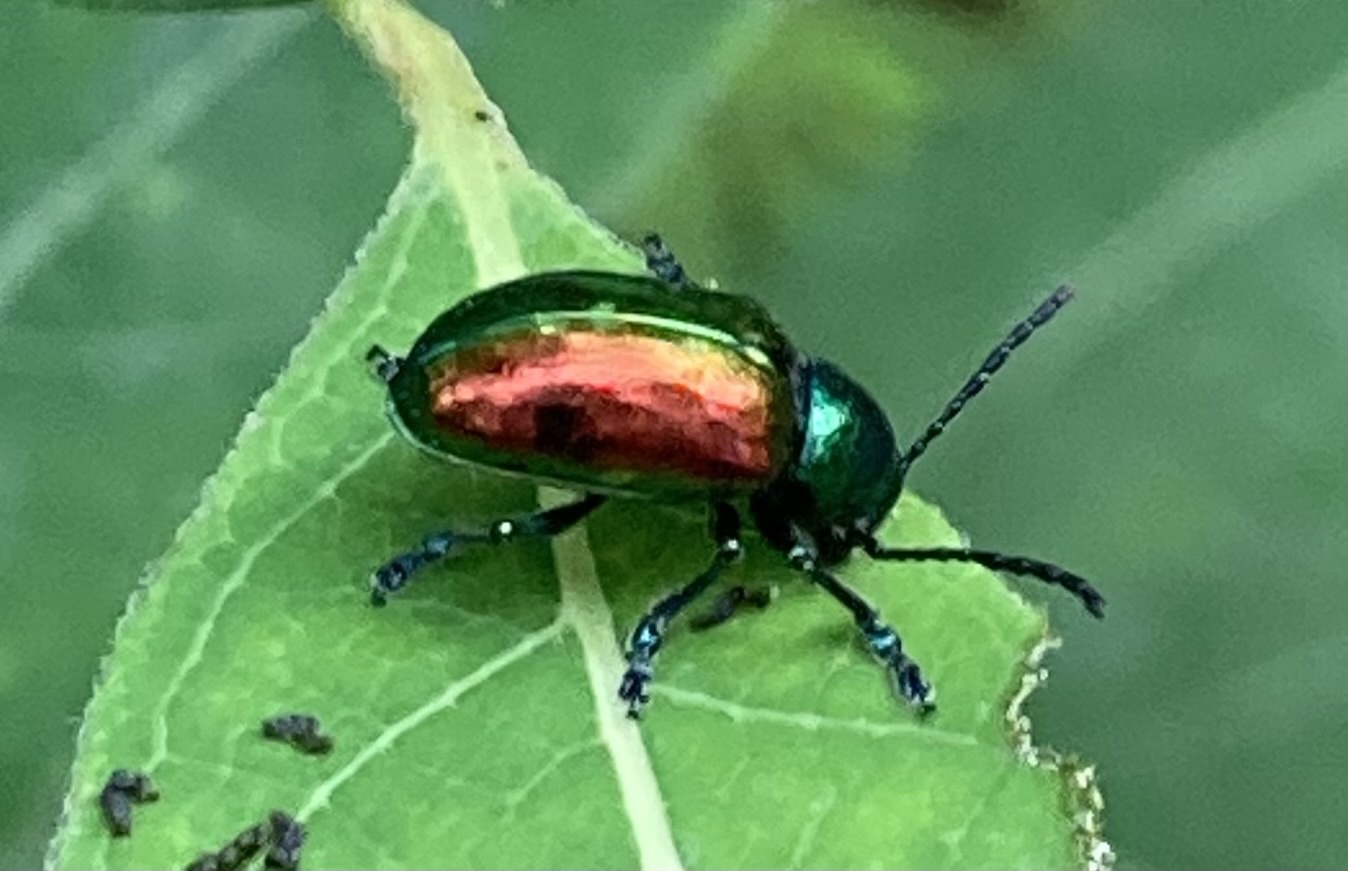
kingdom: Animalia
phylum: Arthropoda
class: Insecta
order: Coleoptera
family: Chrysomelidae
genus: Chrysochus
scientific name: Chrysochus auratus
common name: Dogbane leaf beetle
